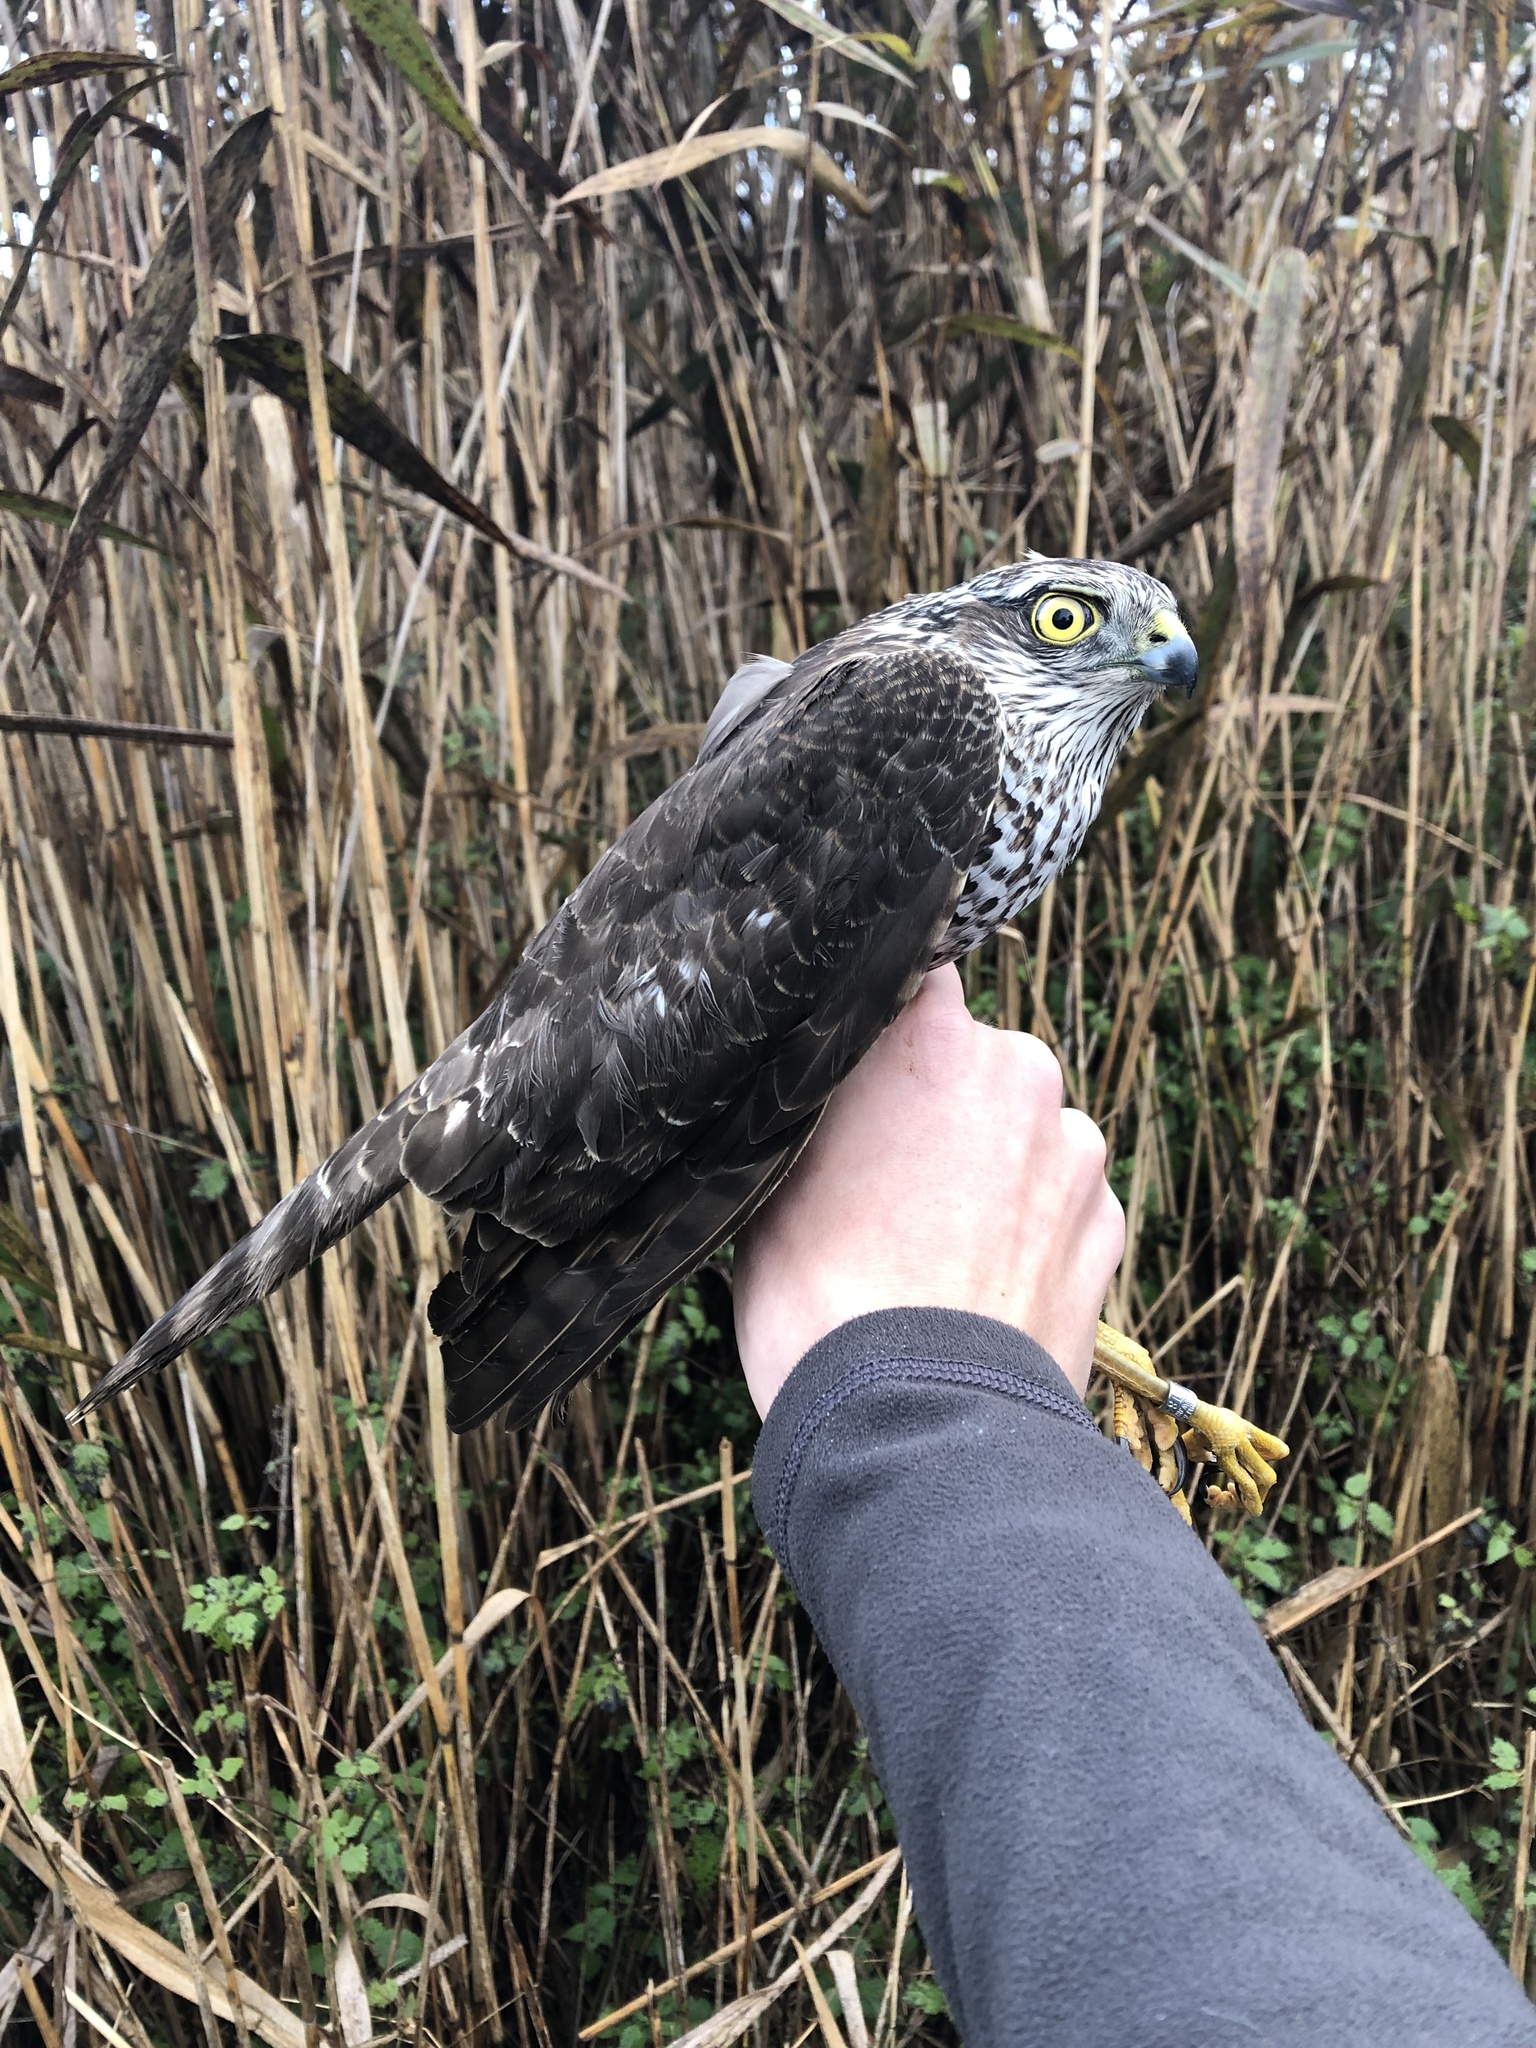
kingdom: Animalia
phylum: Chordata
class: Aves
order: Accipitriformes
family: Accipitridae
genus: Accipiter
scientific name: Accipiter nisus
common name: Eurasian sparrowhawk
